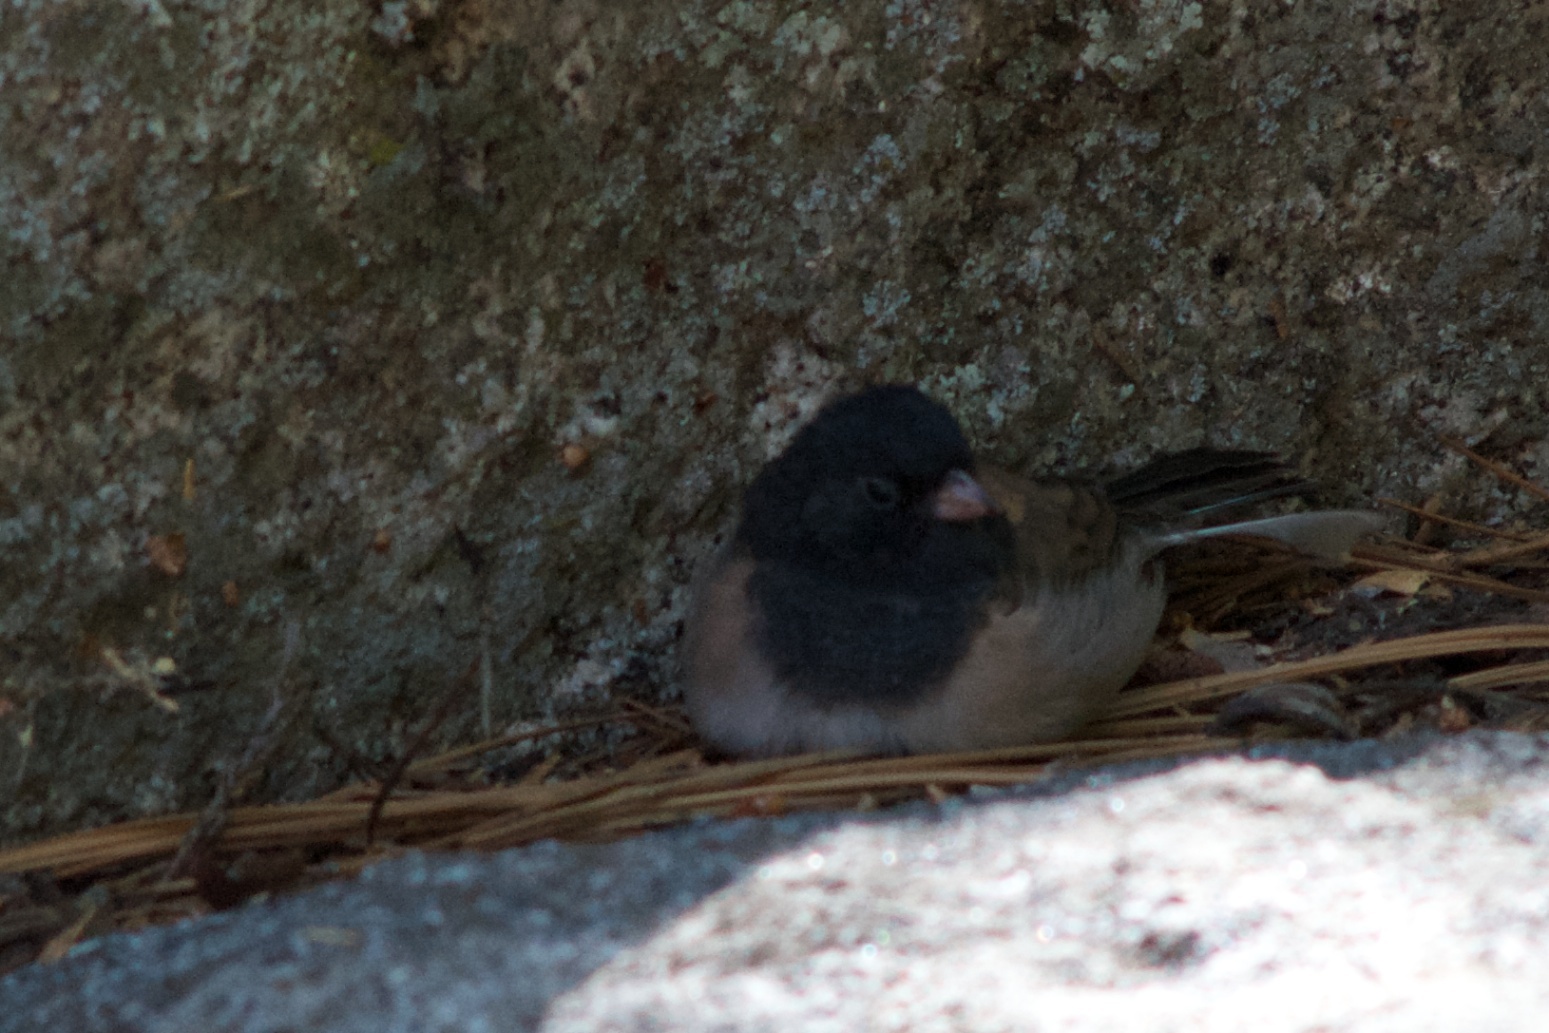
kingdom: Animalia
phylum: Chordata
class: Aves
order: Passeriformes
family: Passerellidae
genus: Junco
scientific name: Junco hyemalis
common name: Dark-eyed junco
